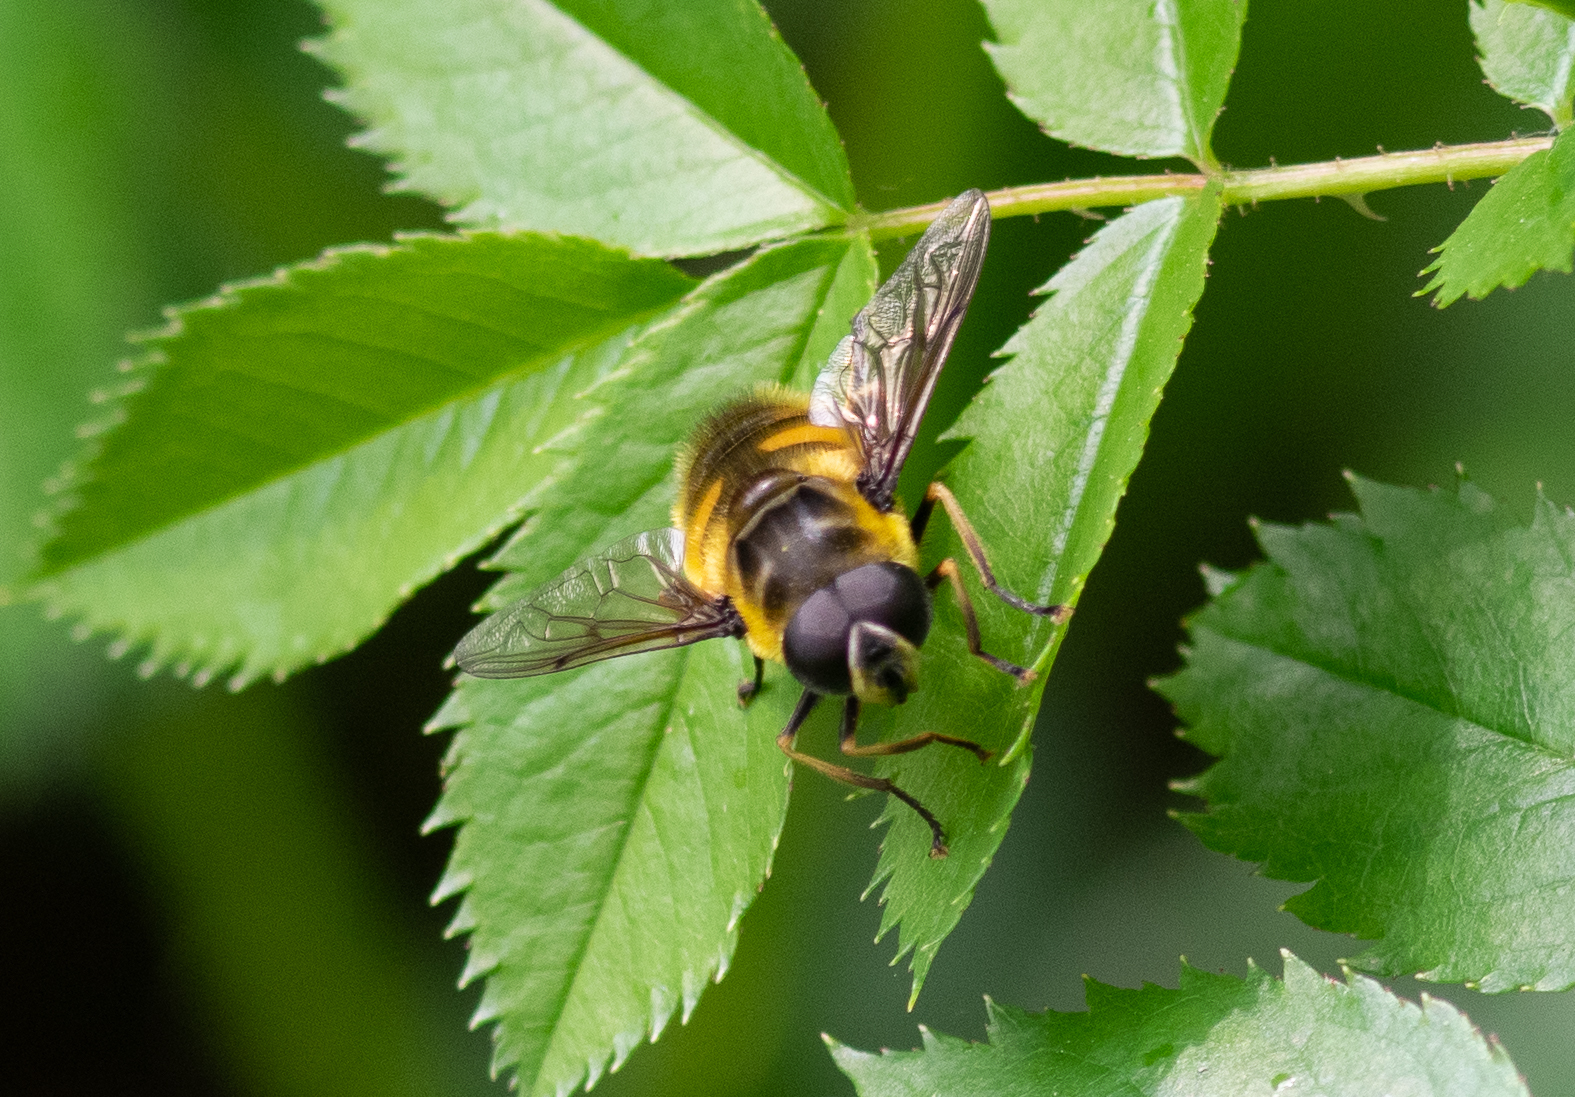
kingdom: Animalia
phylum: Arthropoda
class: Insecta
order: Diptera
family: Syrphidae
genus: Myathropa
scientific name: Myathropa florea
